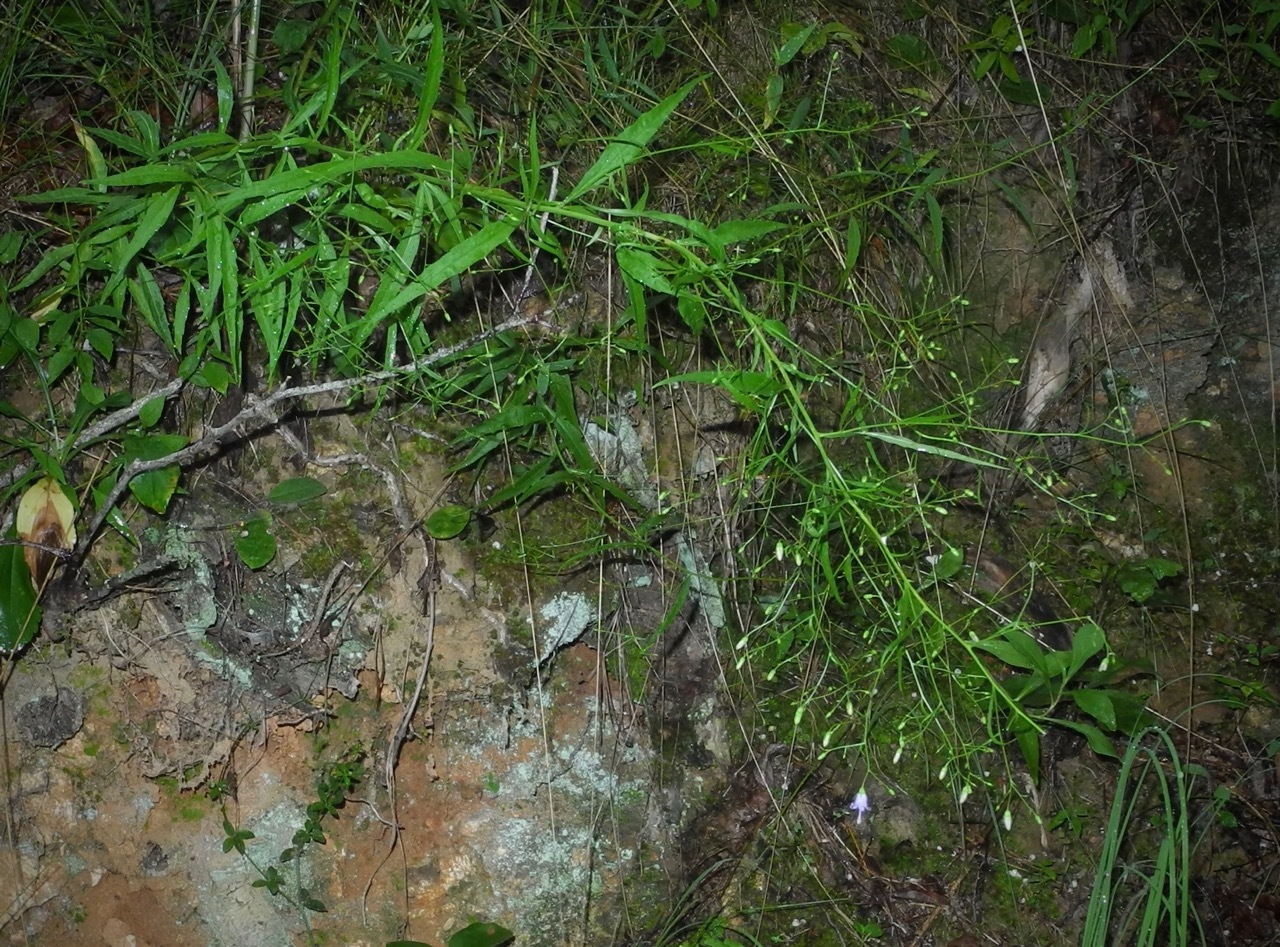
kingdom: Plantae
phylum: Tracheophyta
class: Magnoliopsida
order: Asterales
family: Campanulaceae
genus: Campanula
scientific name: Campanula divaricata
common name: Appalachian bellflower
